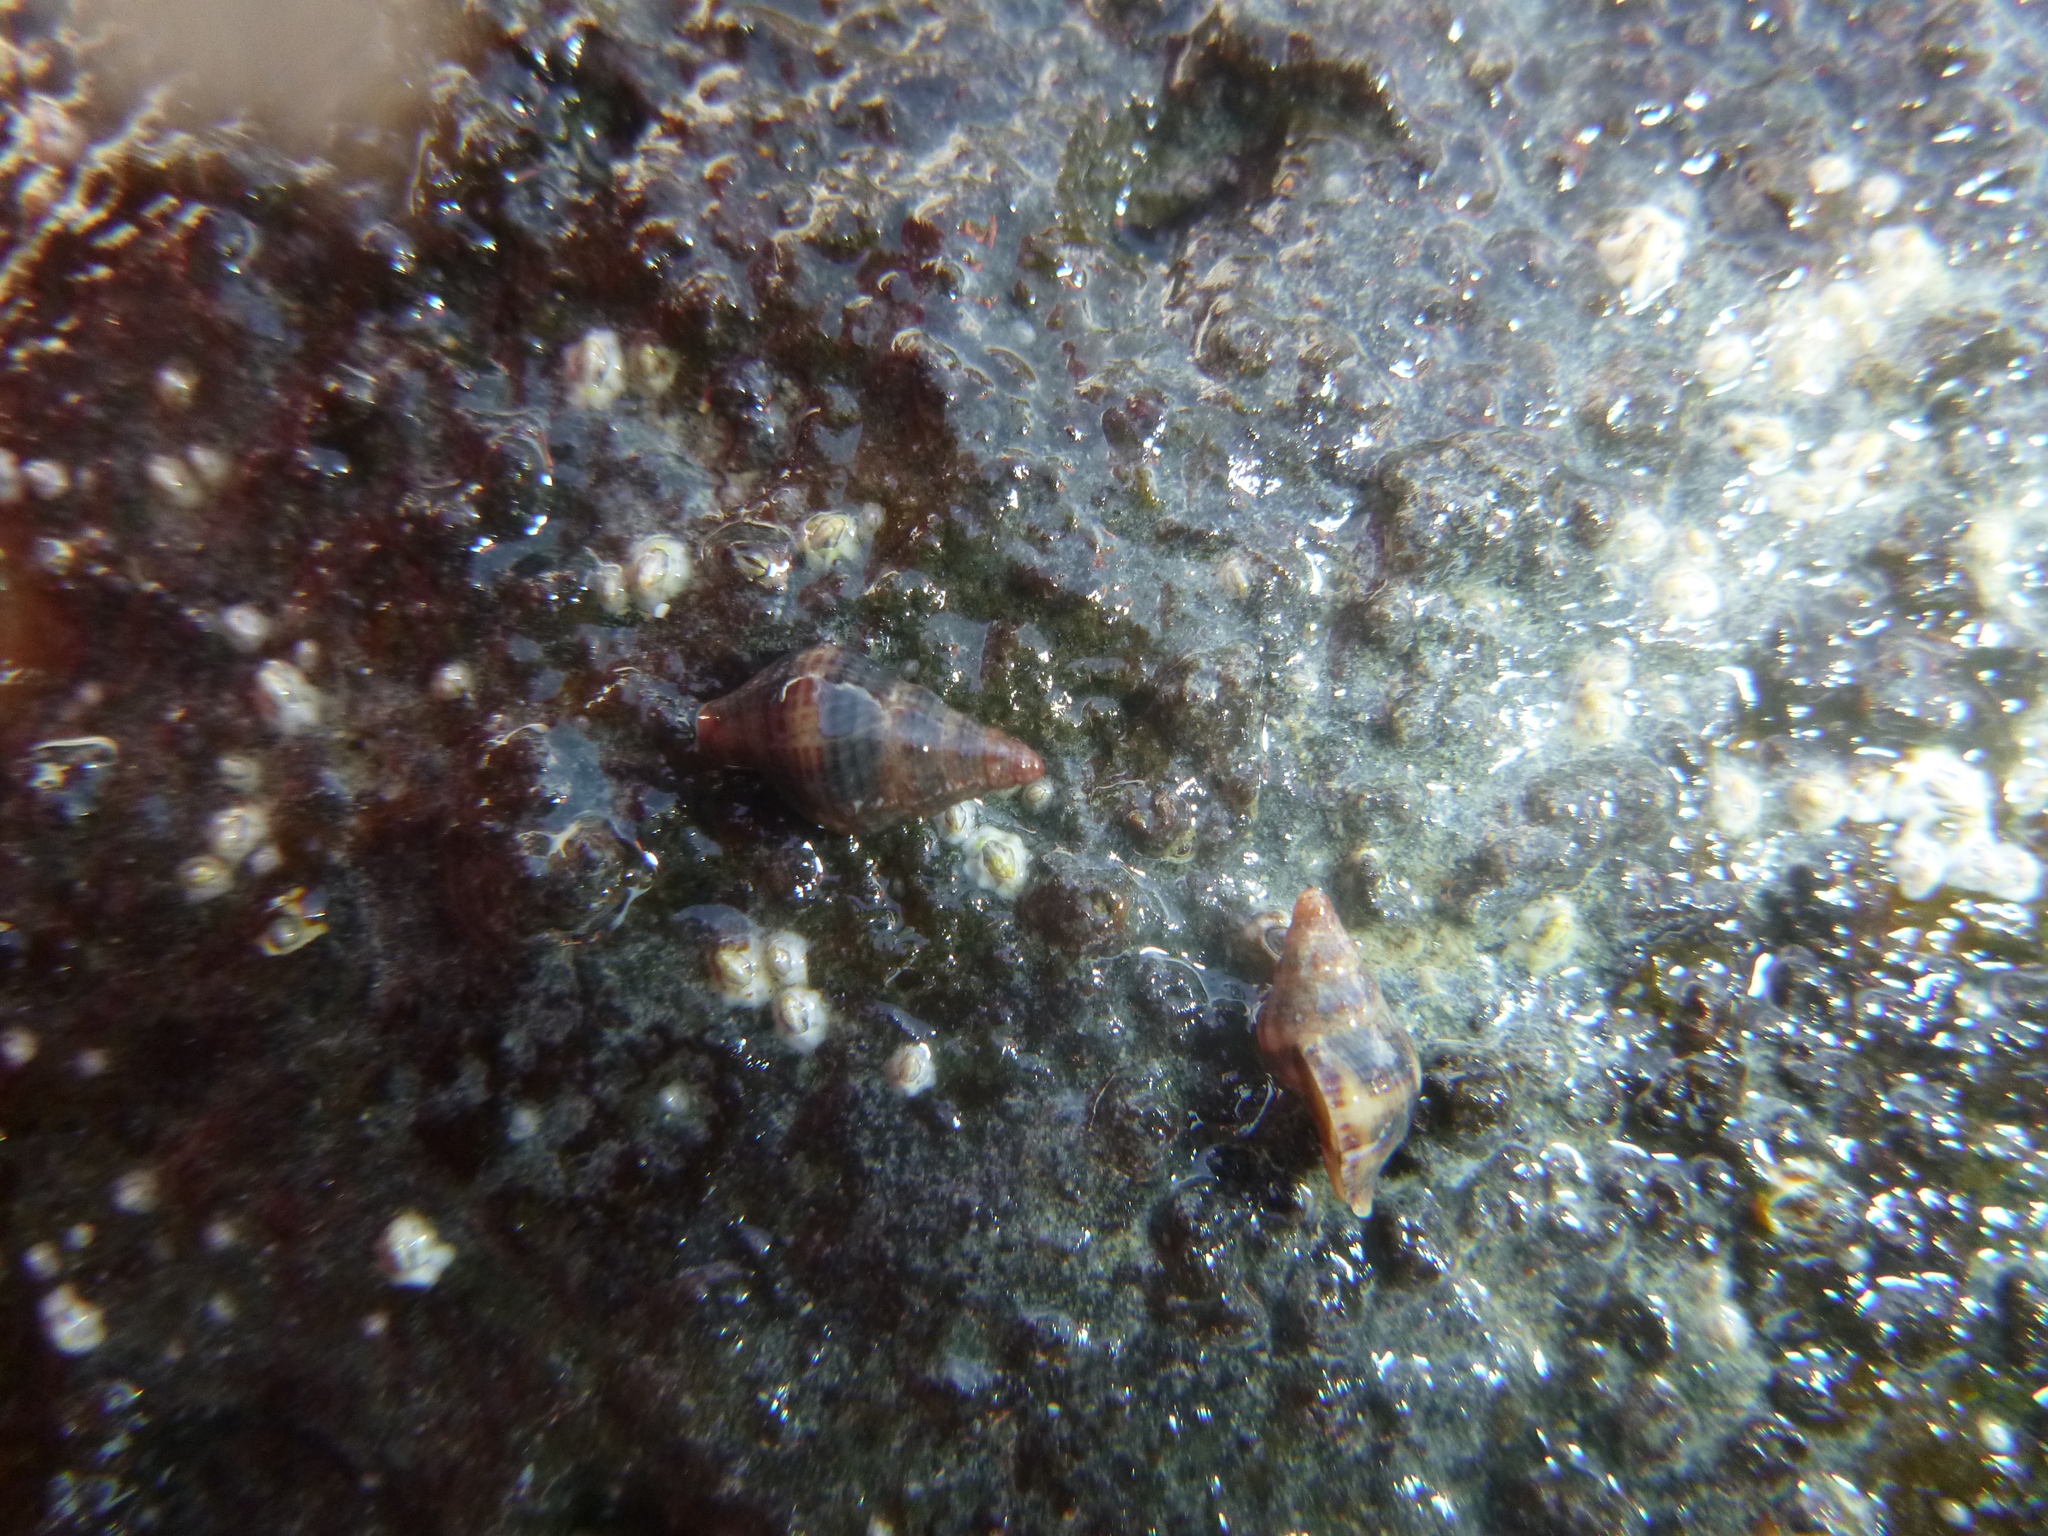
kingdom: Animalia
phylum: Mollusca
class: Gastropoda
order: Neogastropoda
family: Tudiclidae
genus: Buccinulum
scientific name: Buccinulum vittatum
